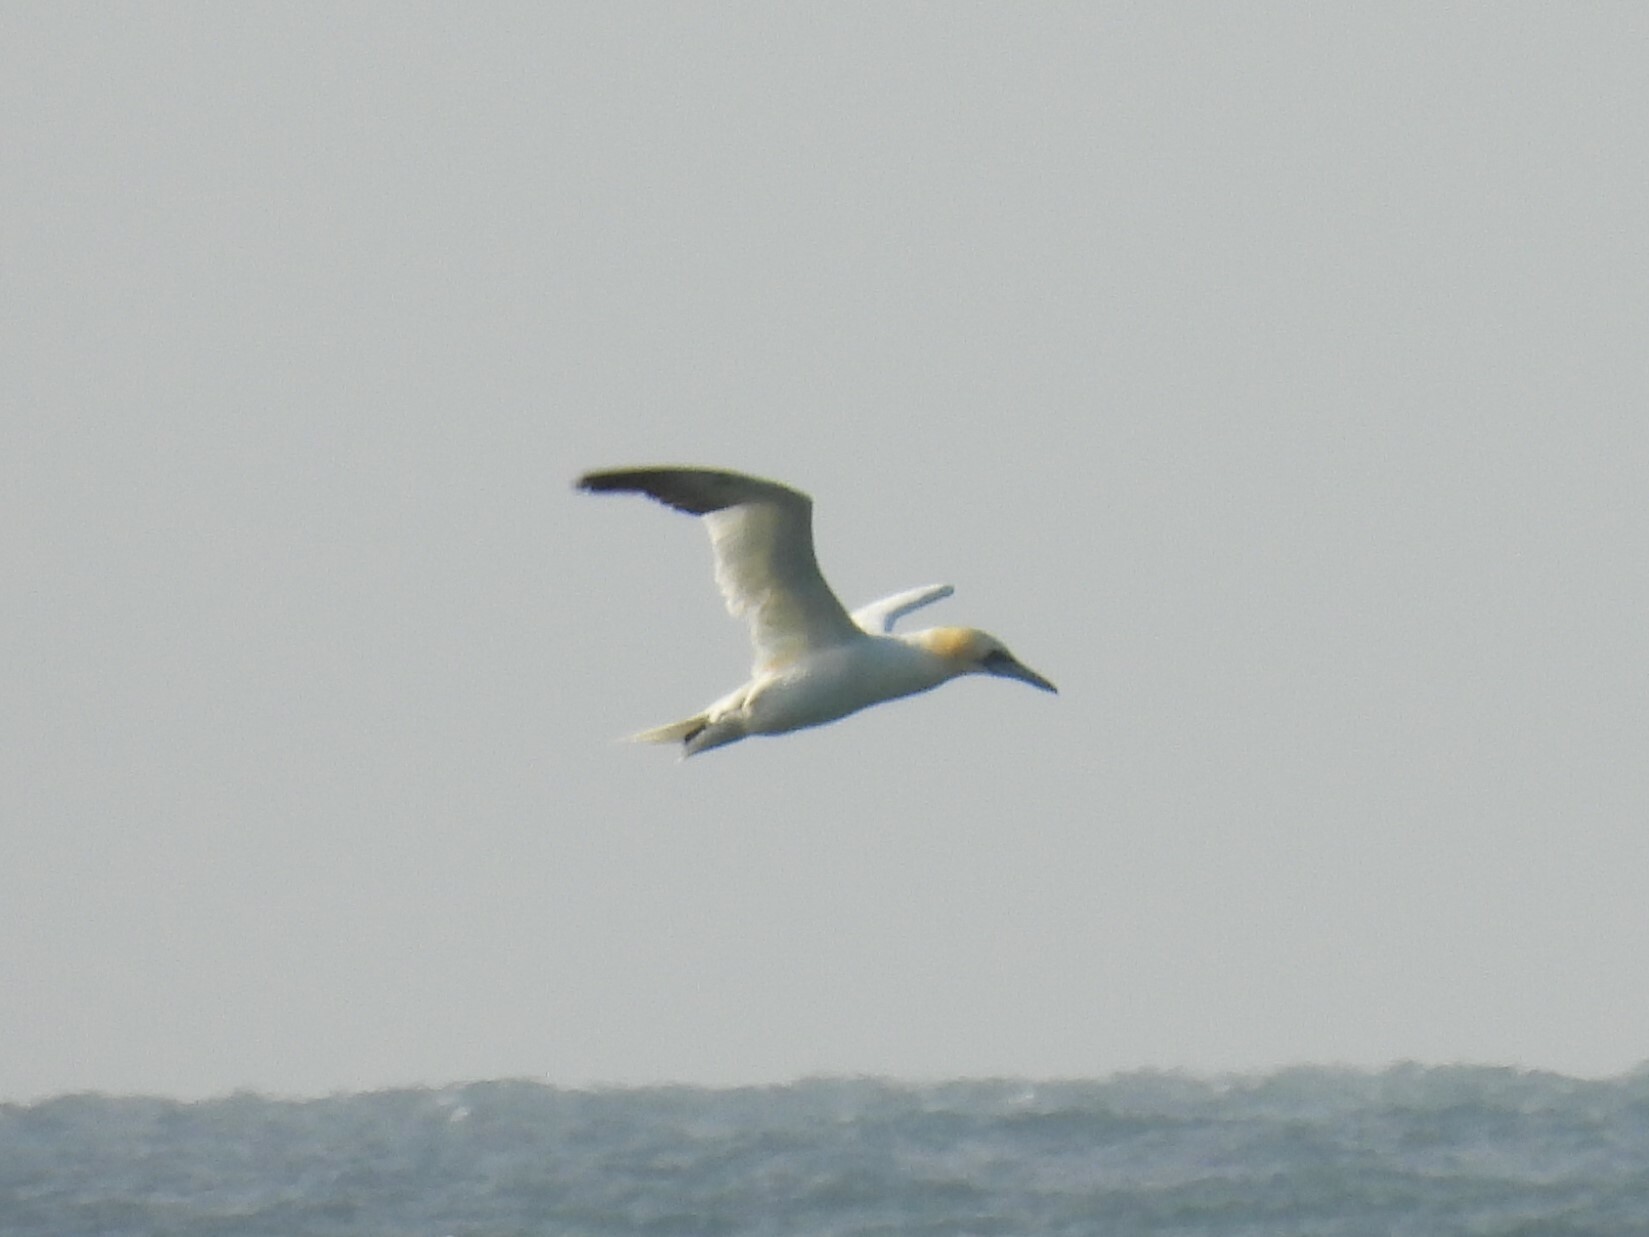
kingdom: Animalia
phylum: Chordata
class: Aves
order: Suliformes
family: Sulidae
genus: Morus
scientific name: Morus bassanus
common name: Northern gannet
